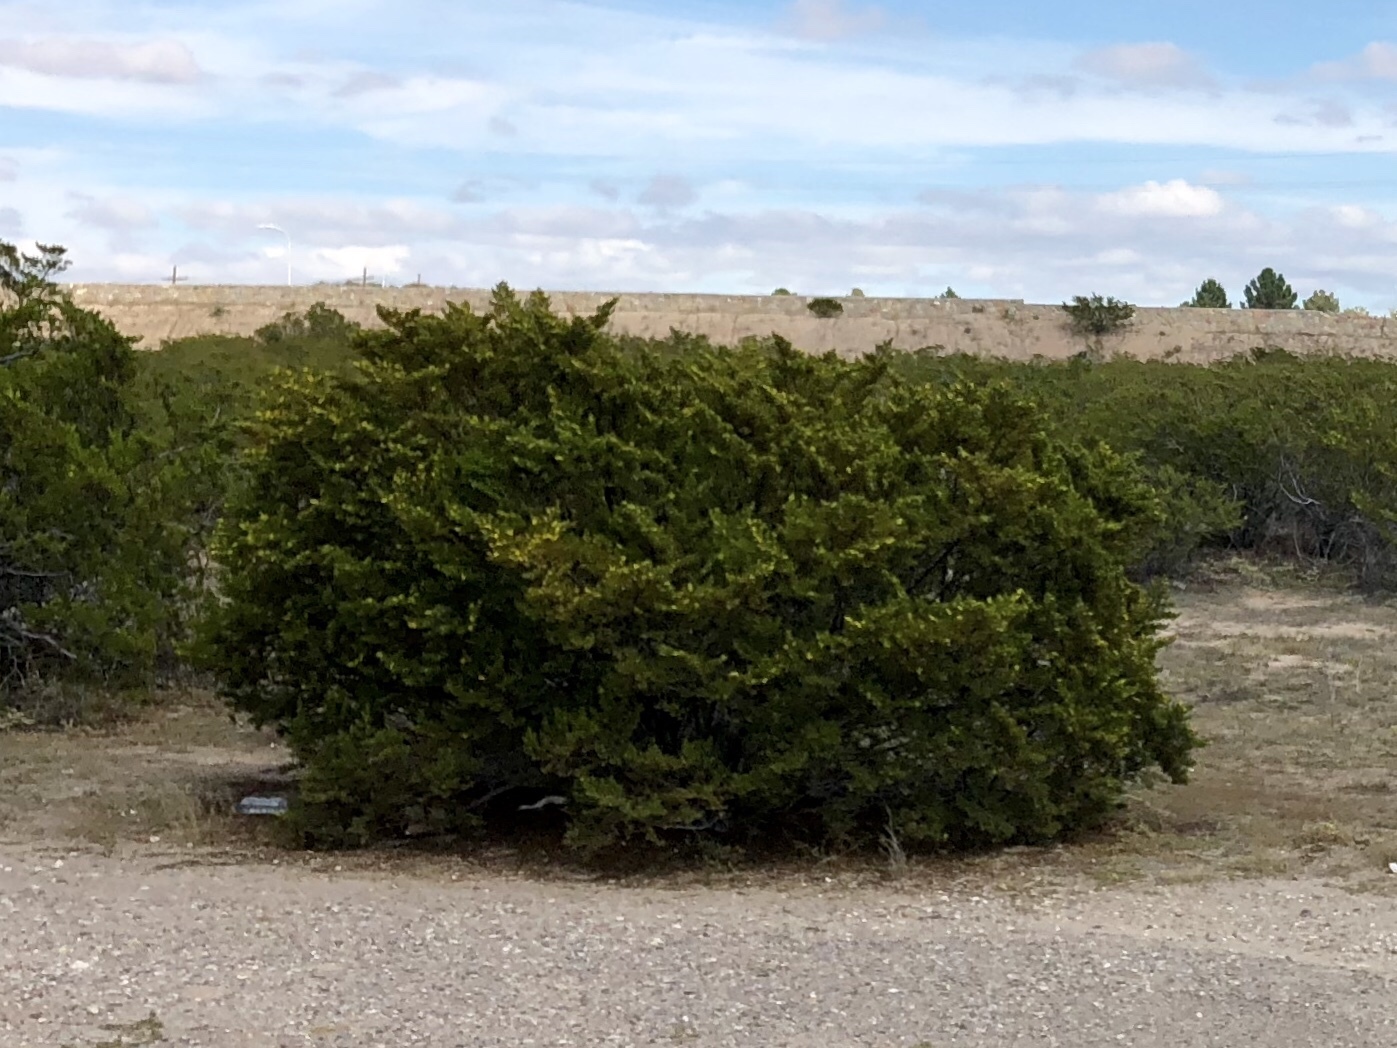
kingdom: Plantae
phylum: Tracheophyta
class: Magnoliopsida
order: Zygophyllales
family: Zygophyllaceae
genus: Larrea
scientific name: Larrea tridentata
